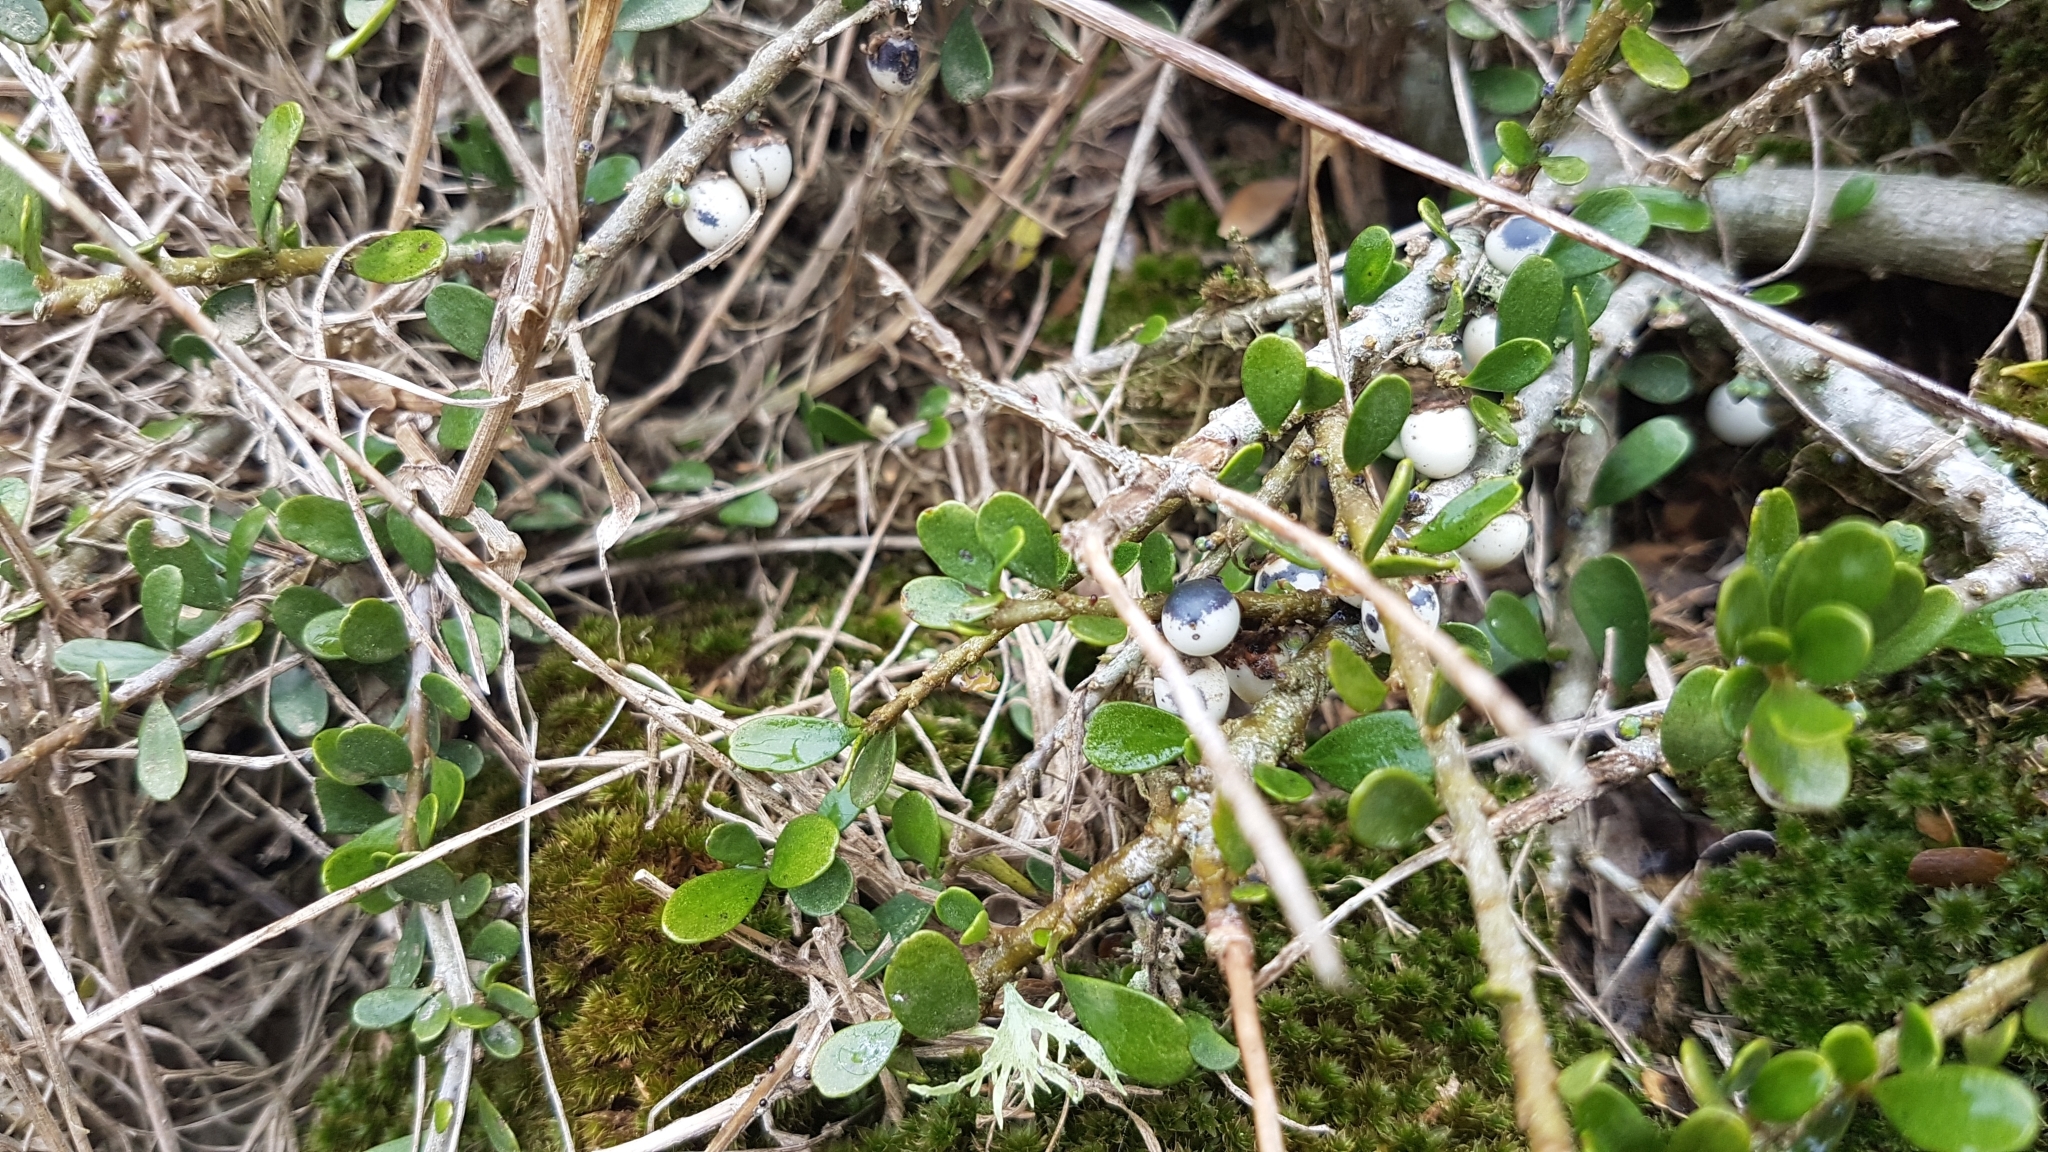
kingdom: Plantae
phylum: Tracheophyta
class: Magnoliopsida
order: Malpighiales
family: Violaceae
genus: Melicytus
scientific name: Melicytus crassifolius
